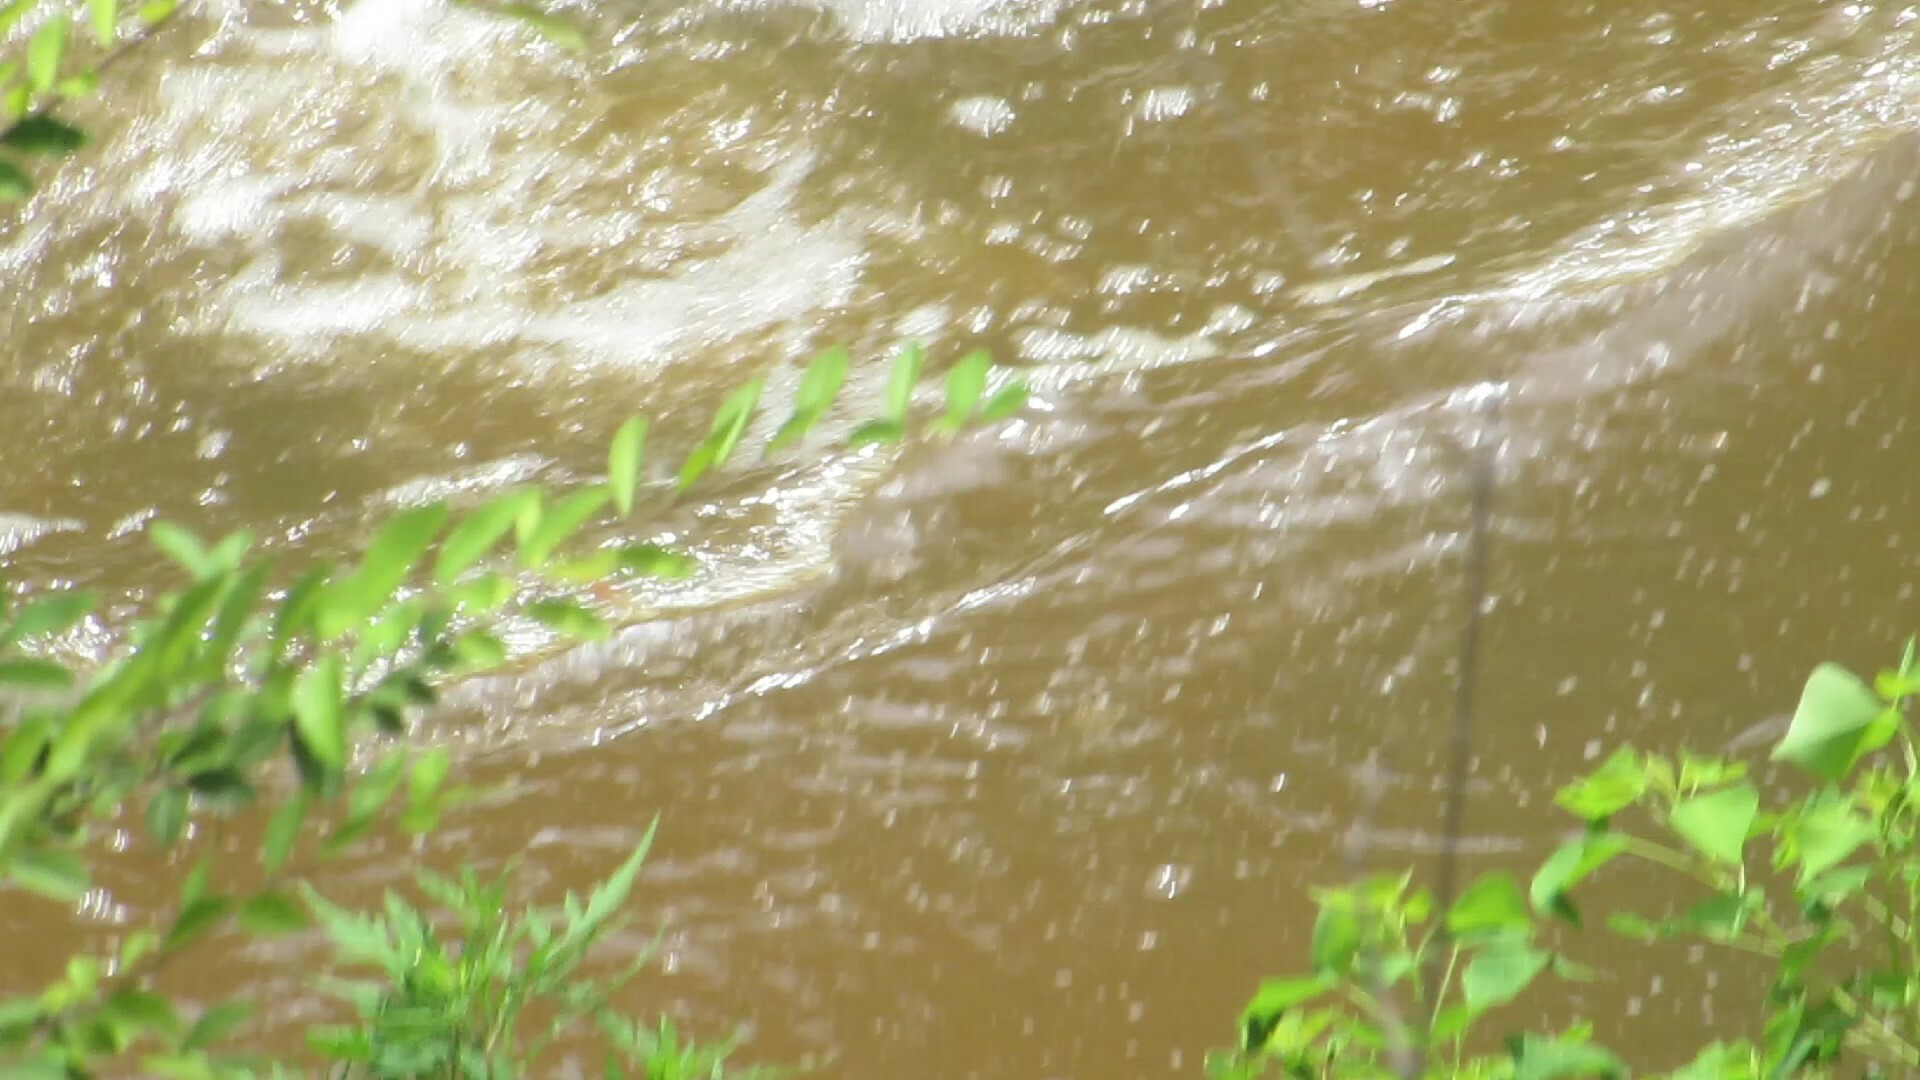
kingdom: Animalia
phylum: Chordata
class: Crocodylia
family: Alligatoridae
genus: Alligator
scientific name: Alligator mississippiensis
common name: American alligator
